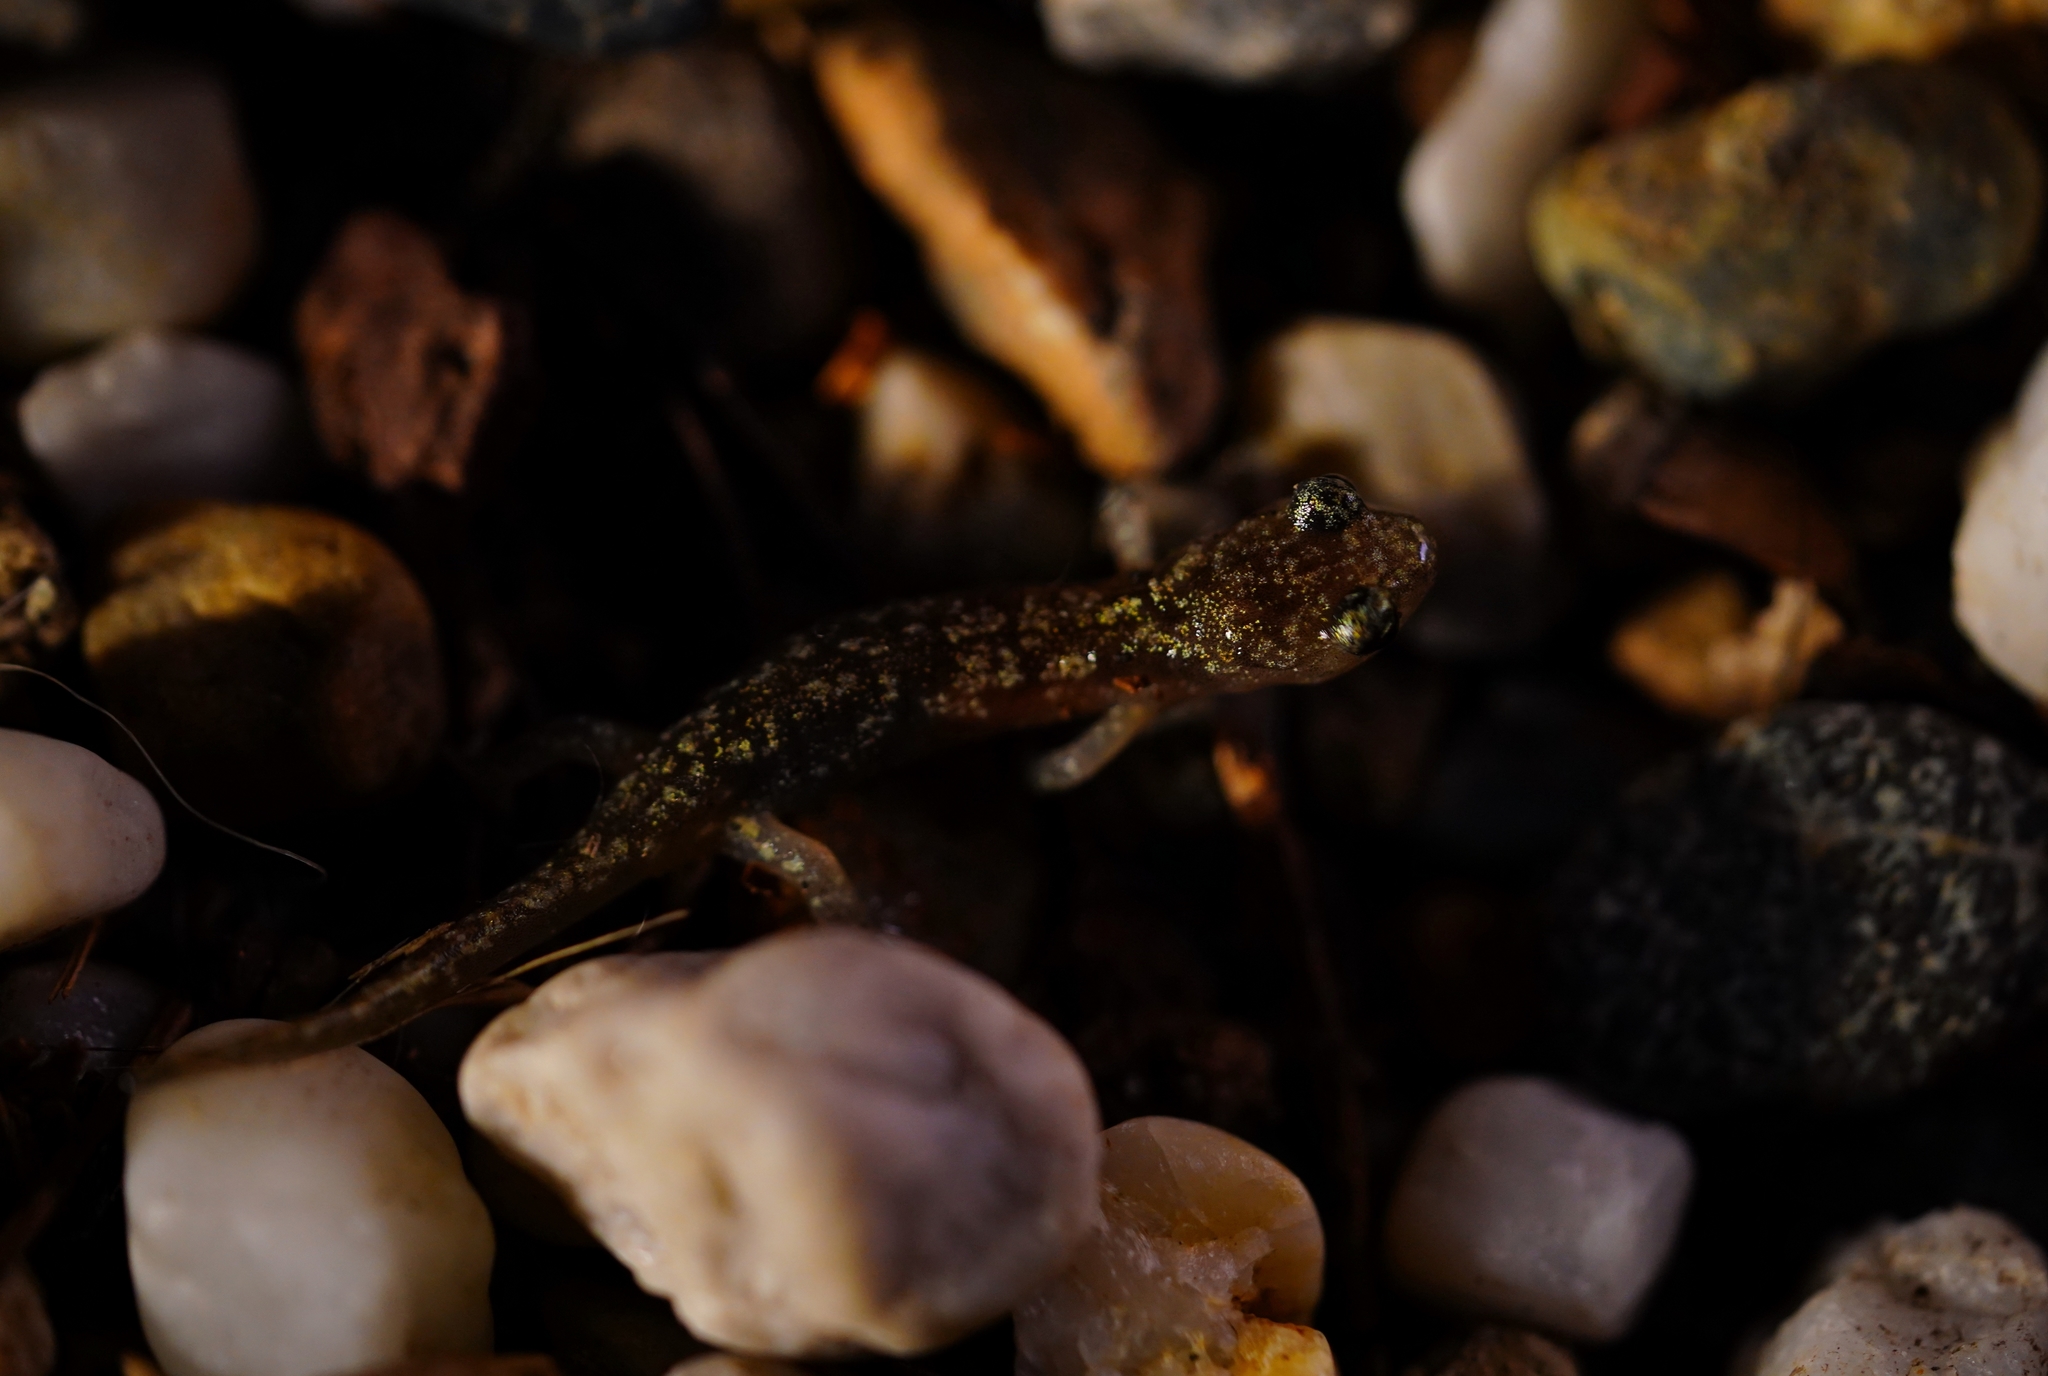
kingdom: Animalia
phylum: Chordata
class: Amphibia
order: Caudata
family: Plethodontidae
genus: Aneides
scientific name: Aneides lugubris
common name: Arboreal salamander
